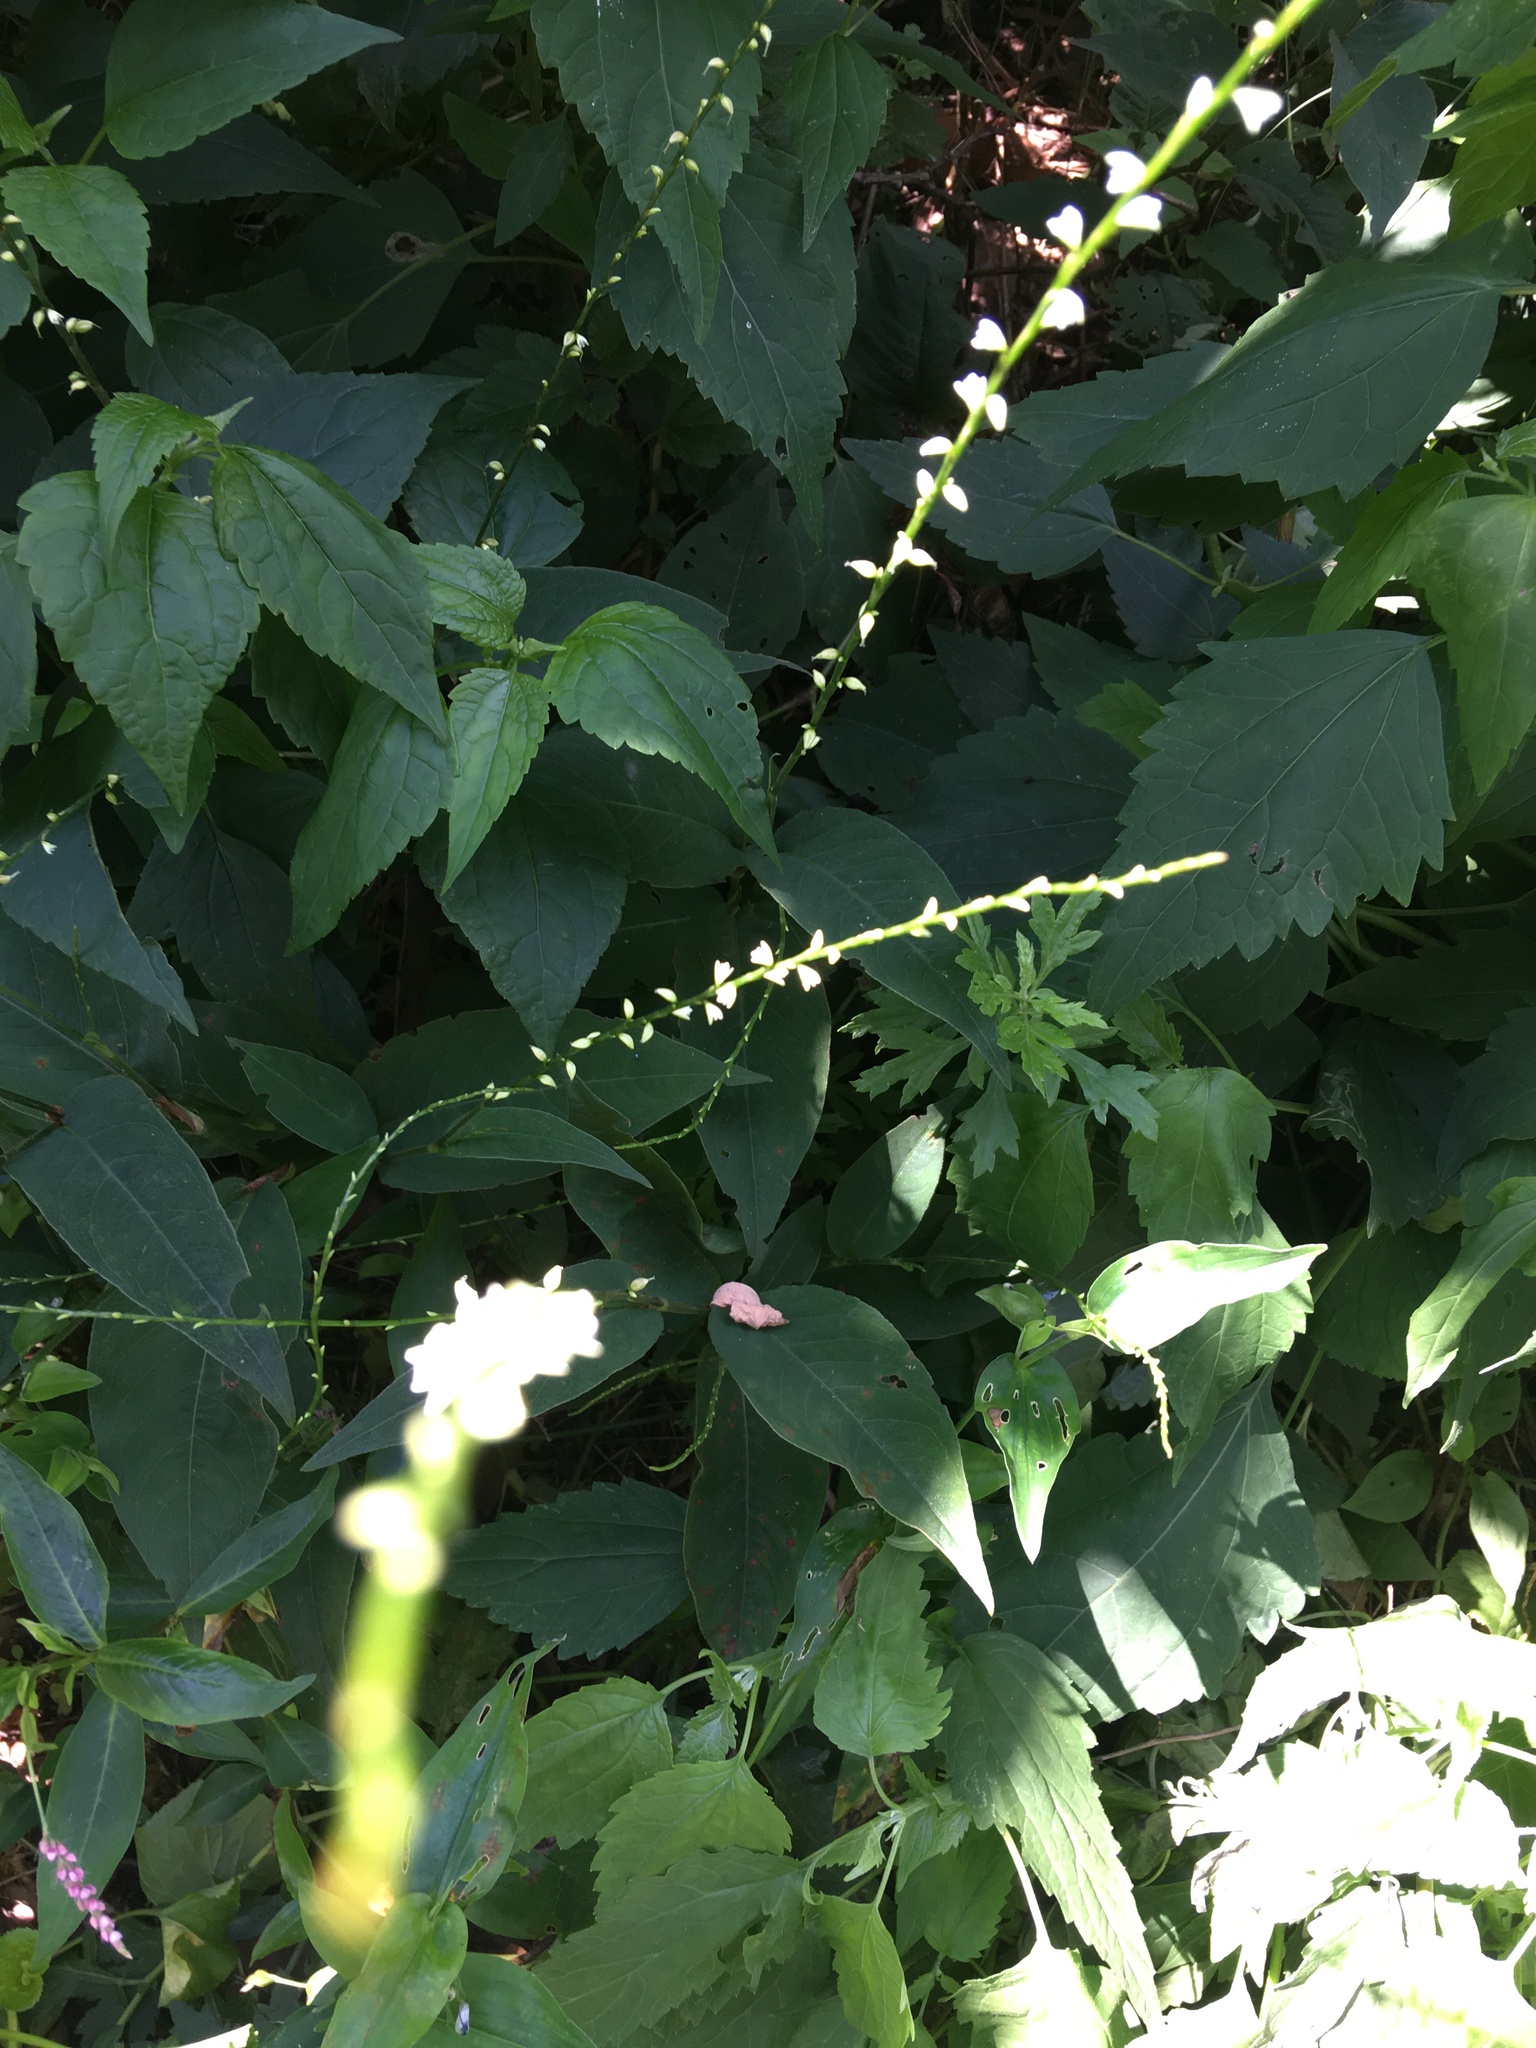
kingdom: Plantae
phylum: Tracheophyta
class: Magnoliopsida
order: Caryophyllales
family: Polygonaceae
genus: Persicaria
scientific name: Persicaria virginiana
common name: Jumpseed
